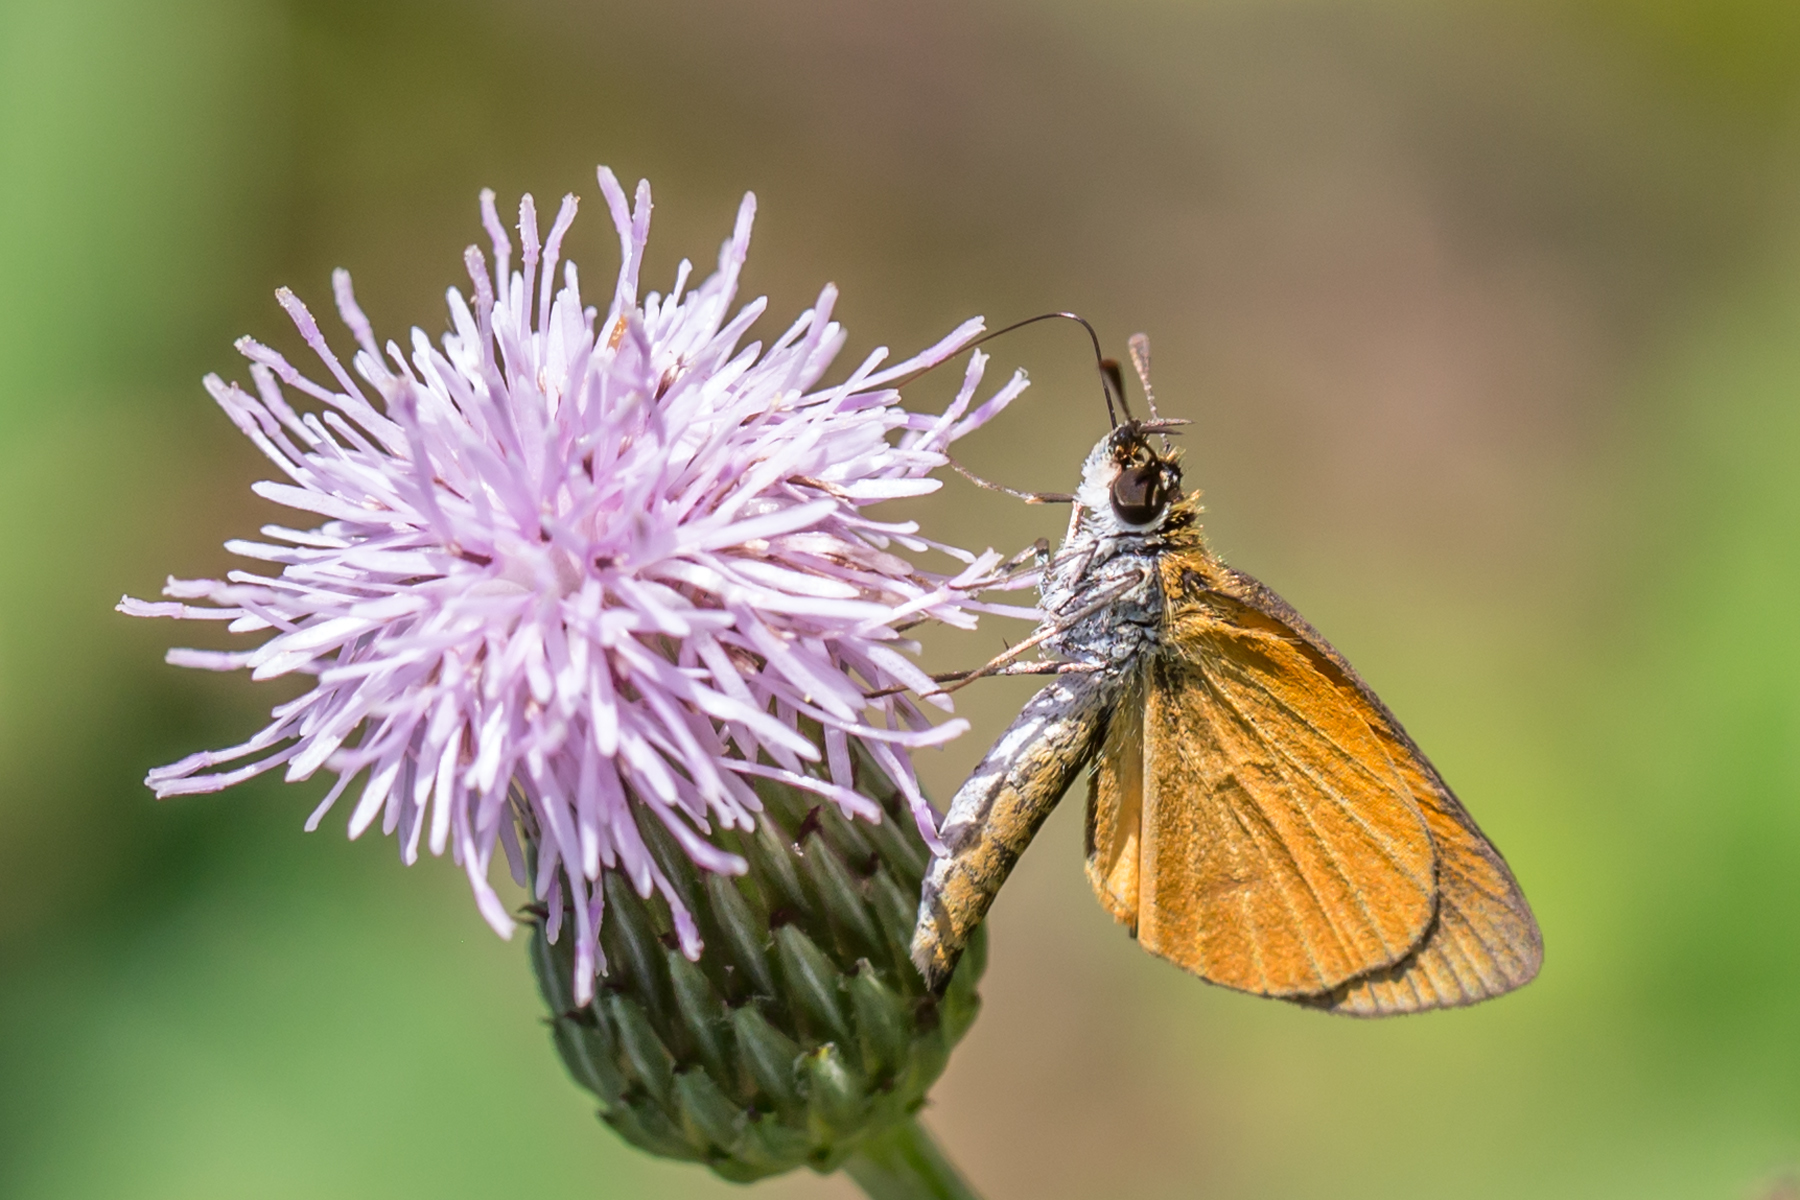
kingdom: Animalia
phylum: Arthropoda
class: Insecta
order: Lepidoptera
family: Hesperiidae
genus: Ancyloxypha
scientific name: Ancyloxypha numitor
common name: Least skipper
